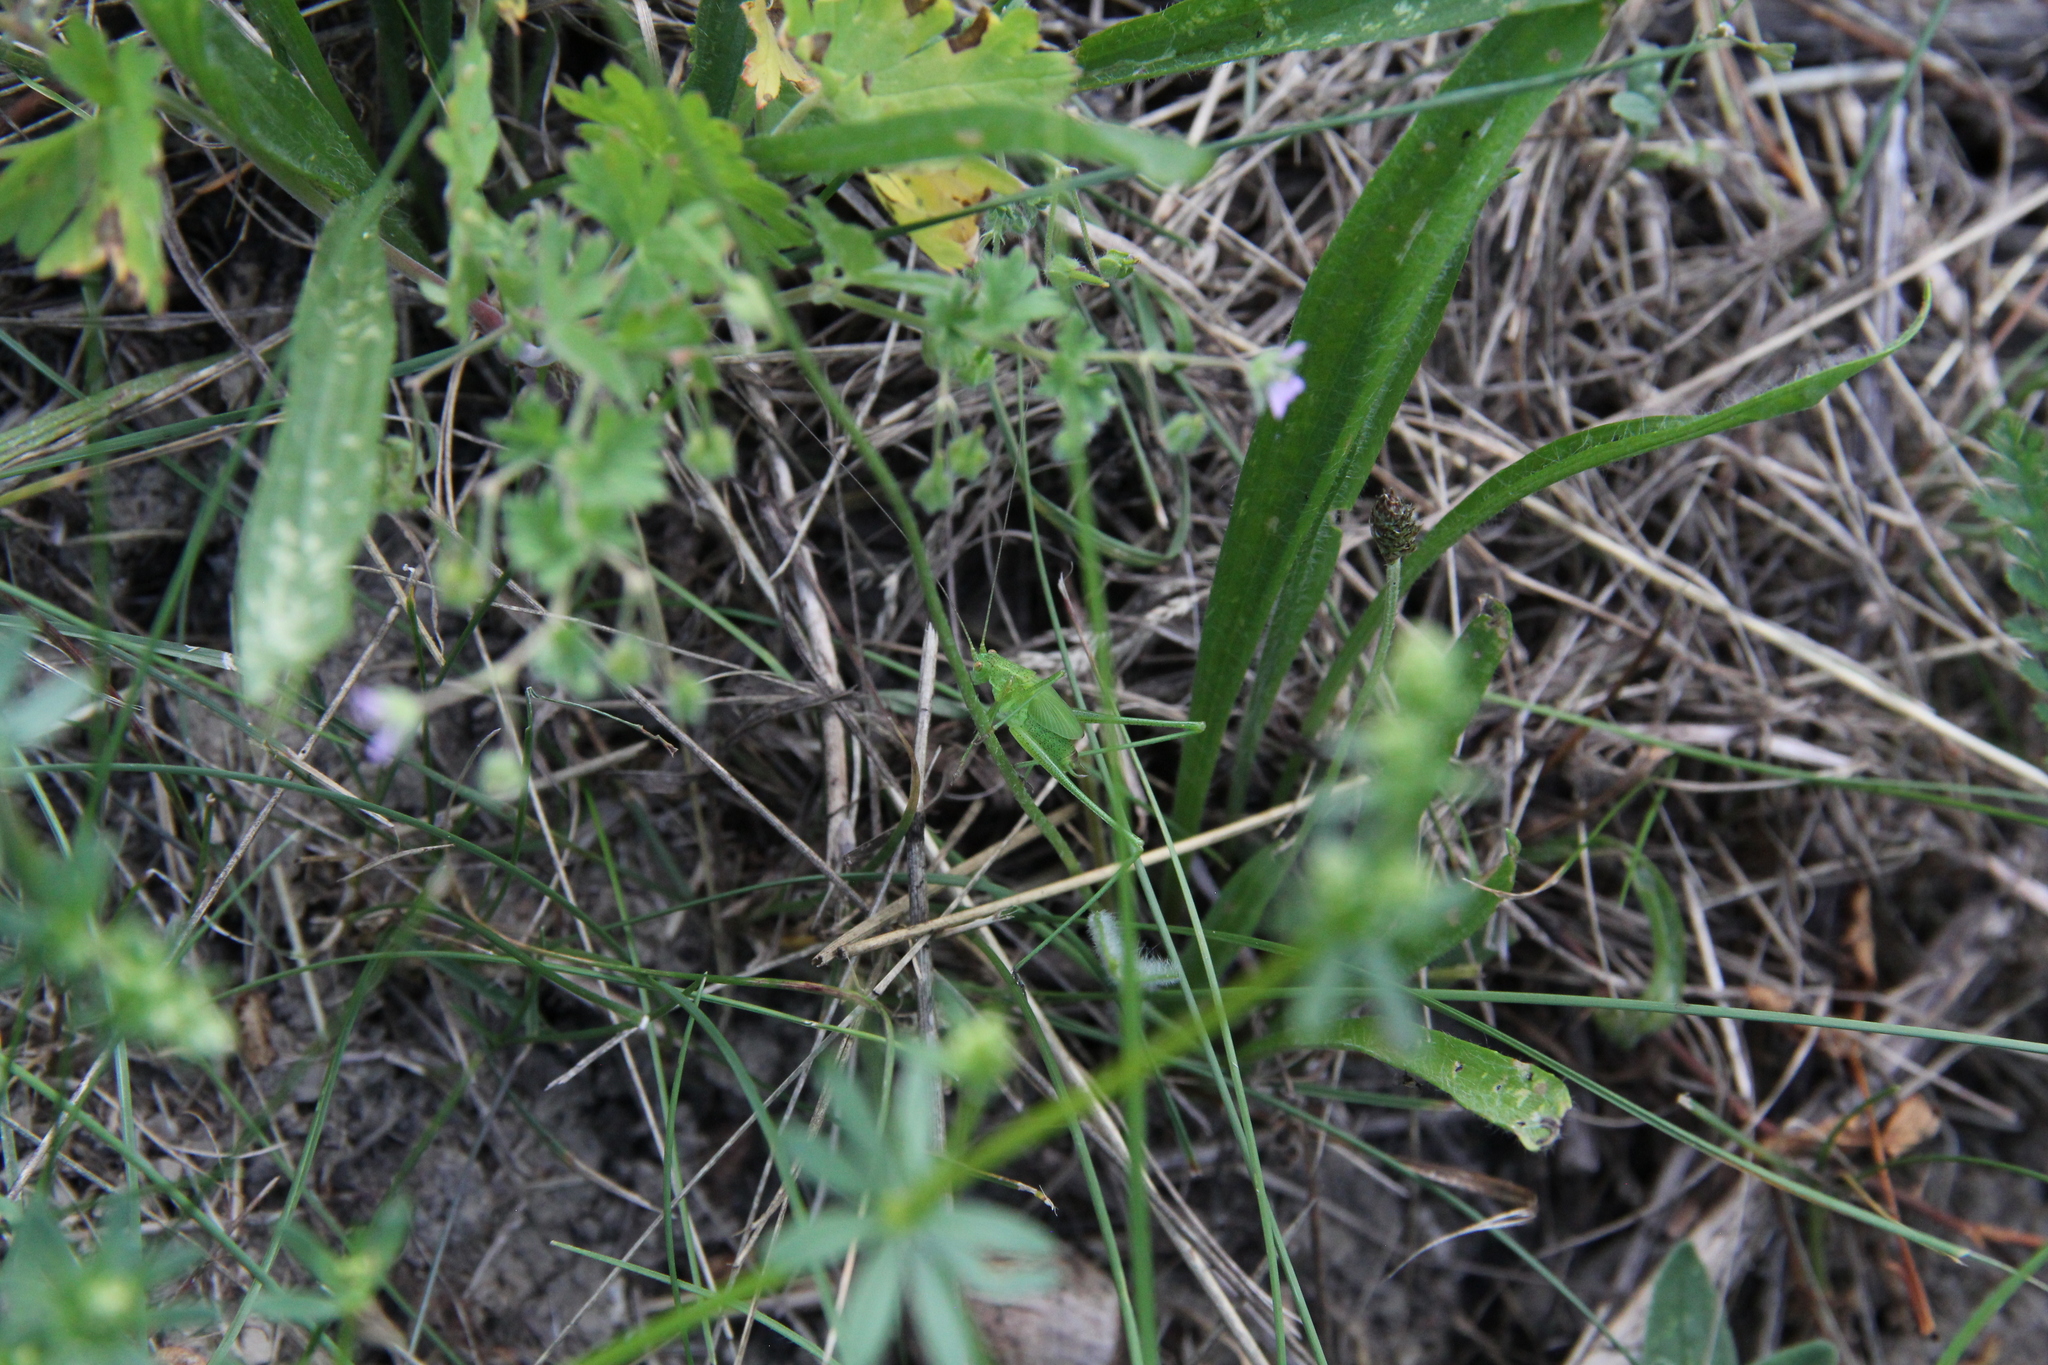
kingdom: Animalia
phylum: Arthropoda
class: Insecta
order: Orthoptera
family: Tettigoniidae
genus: Phaneroptera
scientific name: Phaneroptera falcata
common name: Sickle-bearing bush-cricket
